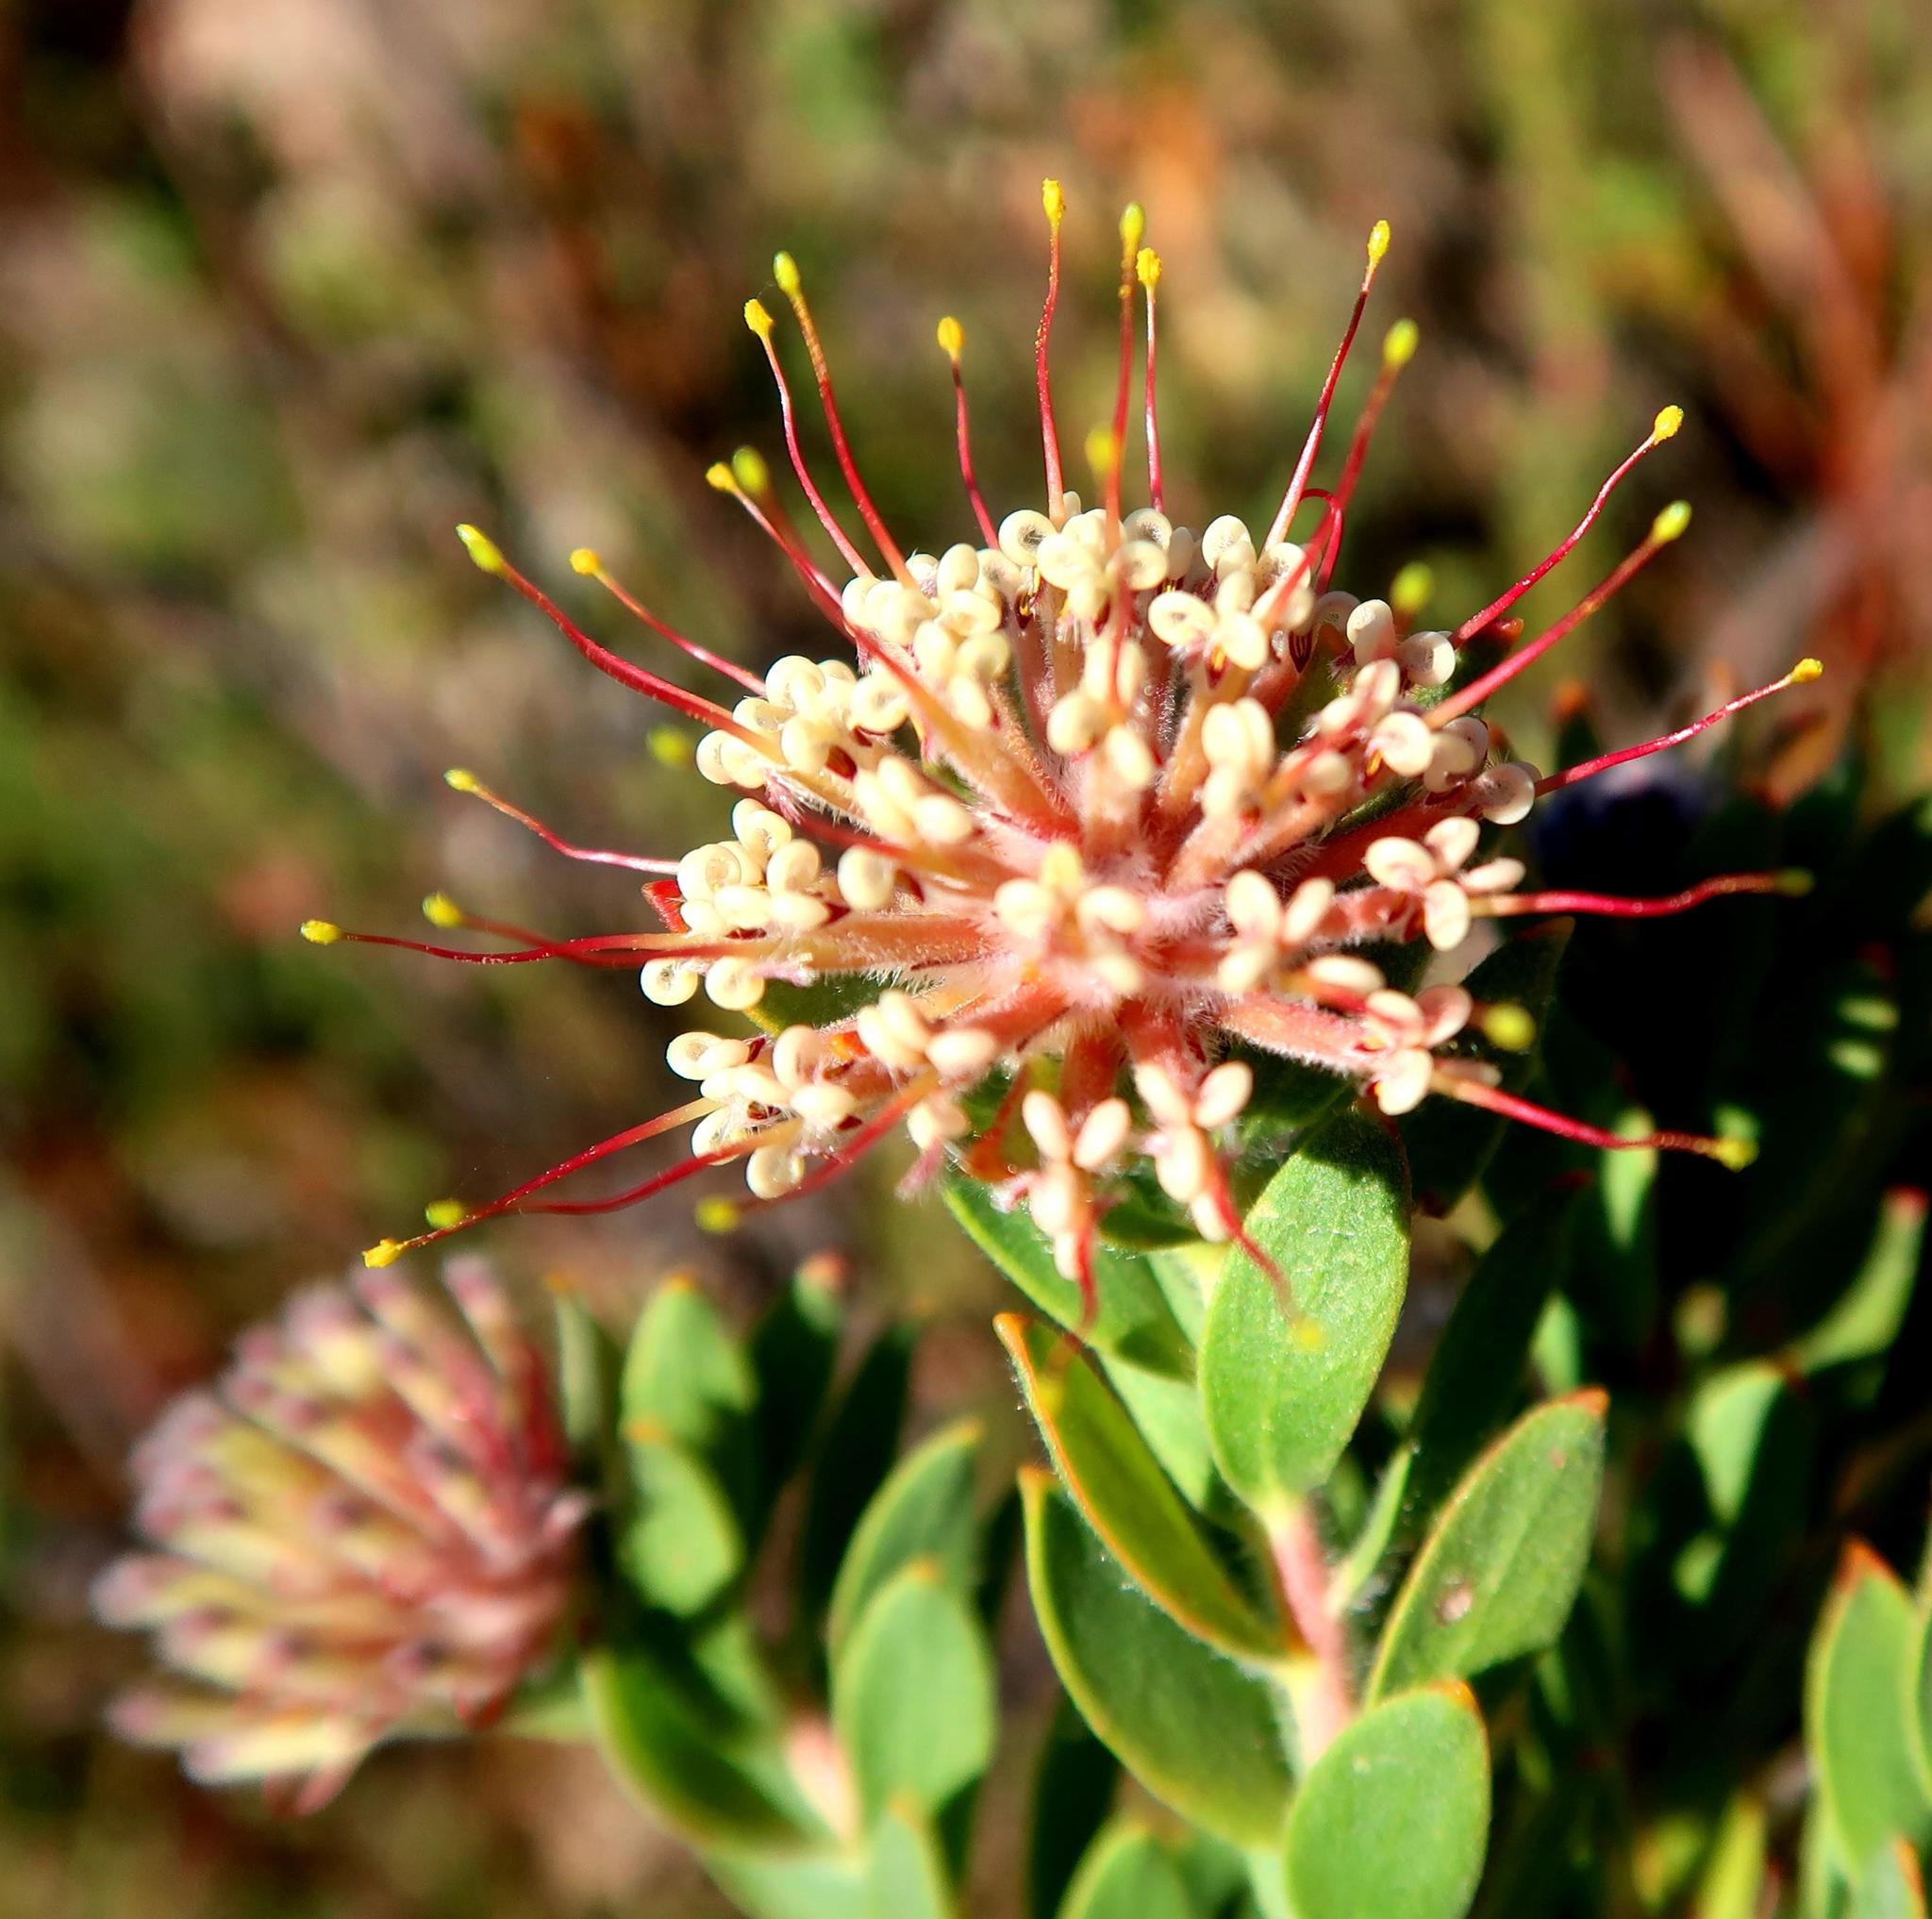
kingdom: Plantae
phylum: Tracheophyta
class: Magnoliopsida
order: Proteales
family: Proteaceae
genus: Leucospermum
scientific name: Leucospermum wittebergense
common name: Swartberg pincushion
